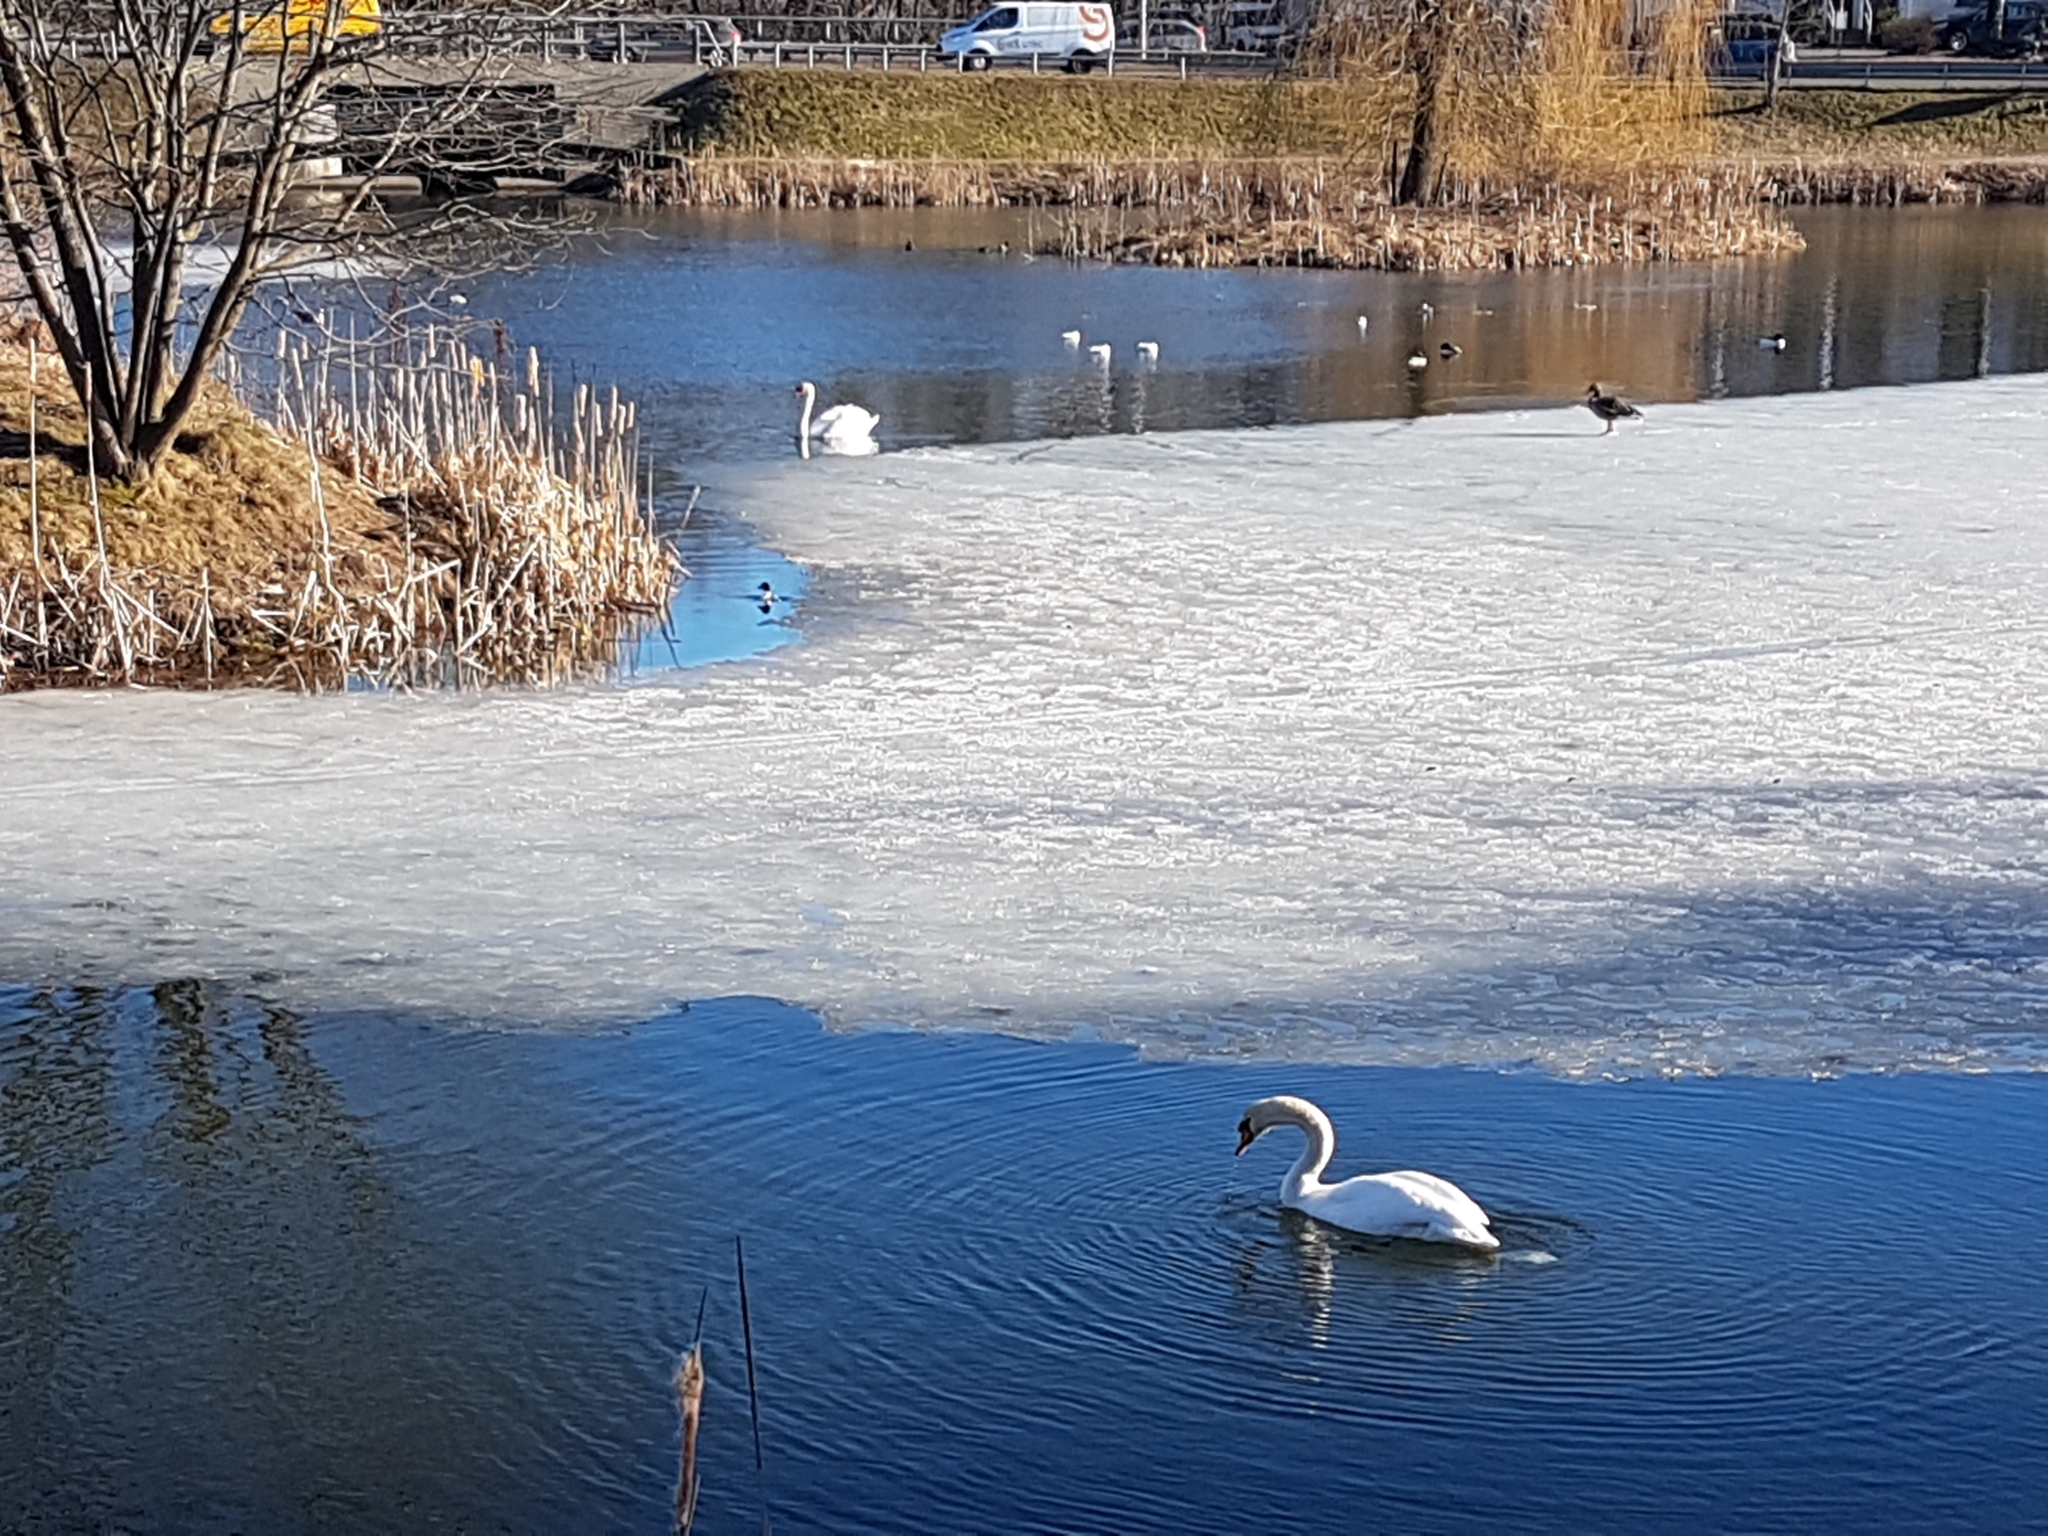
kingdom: Animalia
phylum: Chordata
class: Aves
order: Anseriformes
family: Anatidae
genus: Cygnus
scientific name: Cygnus olor
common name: Mute swan
